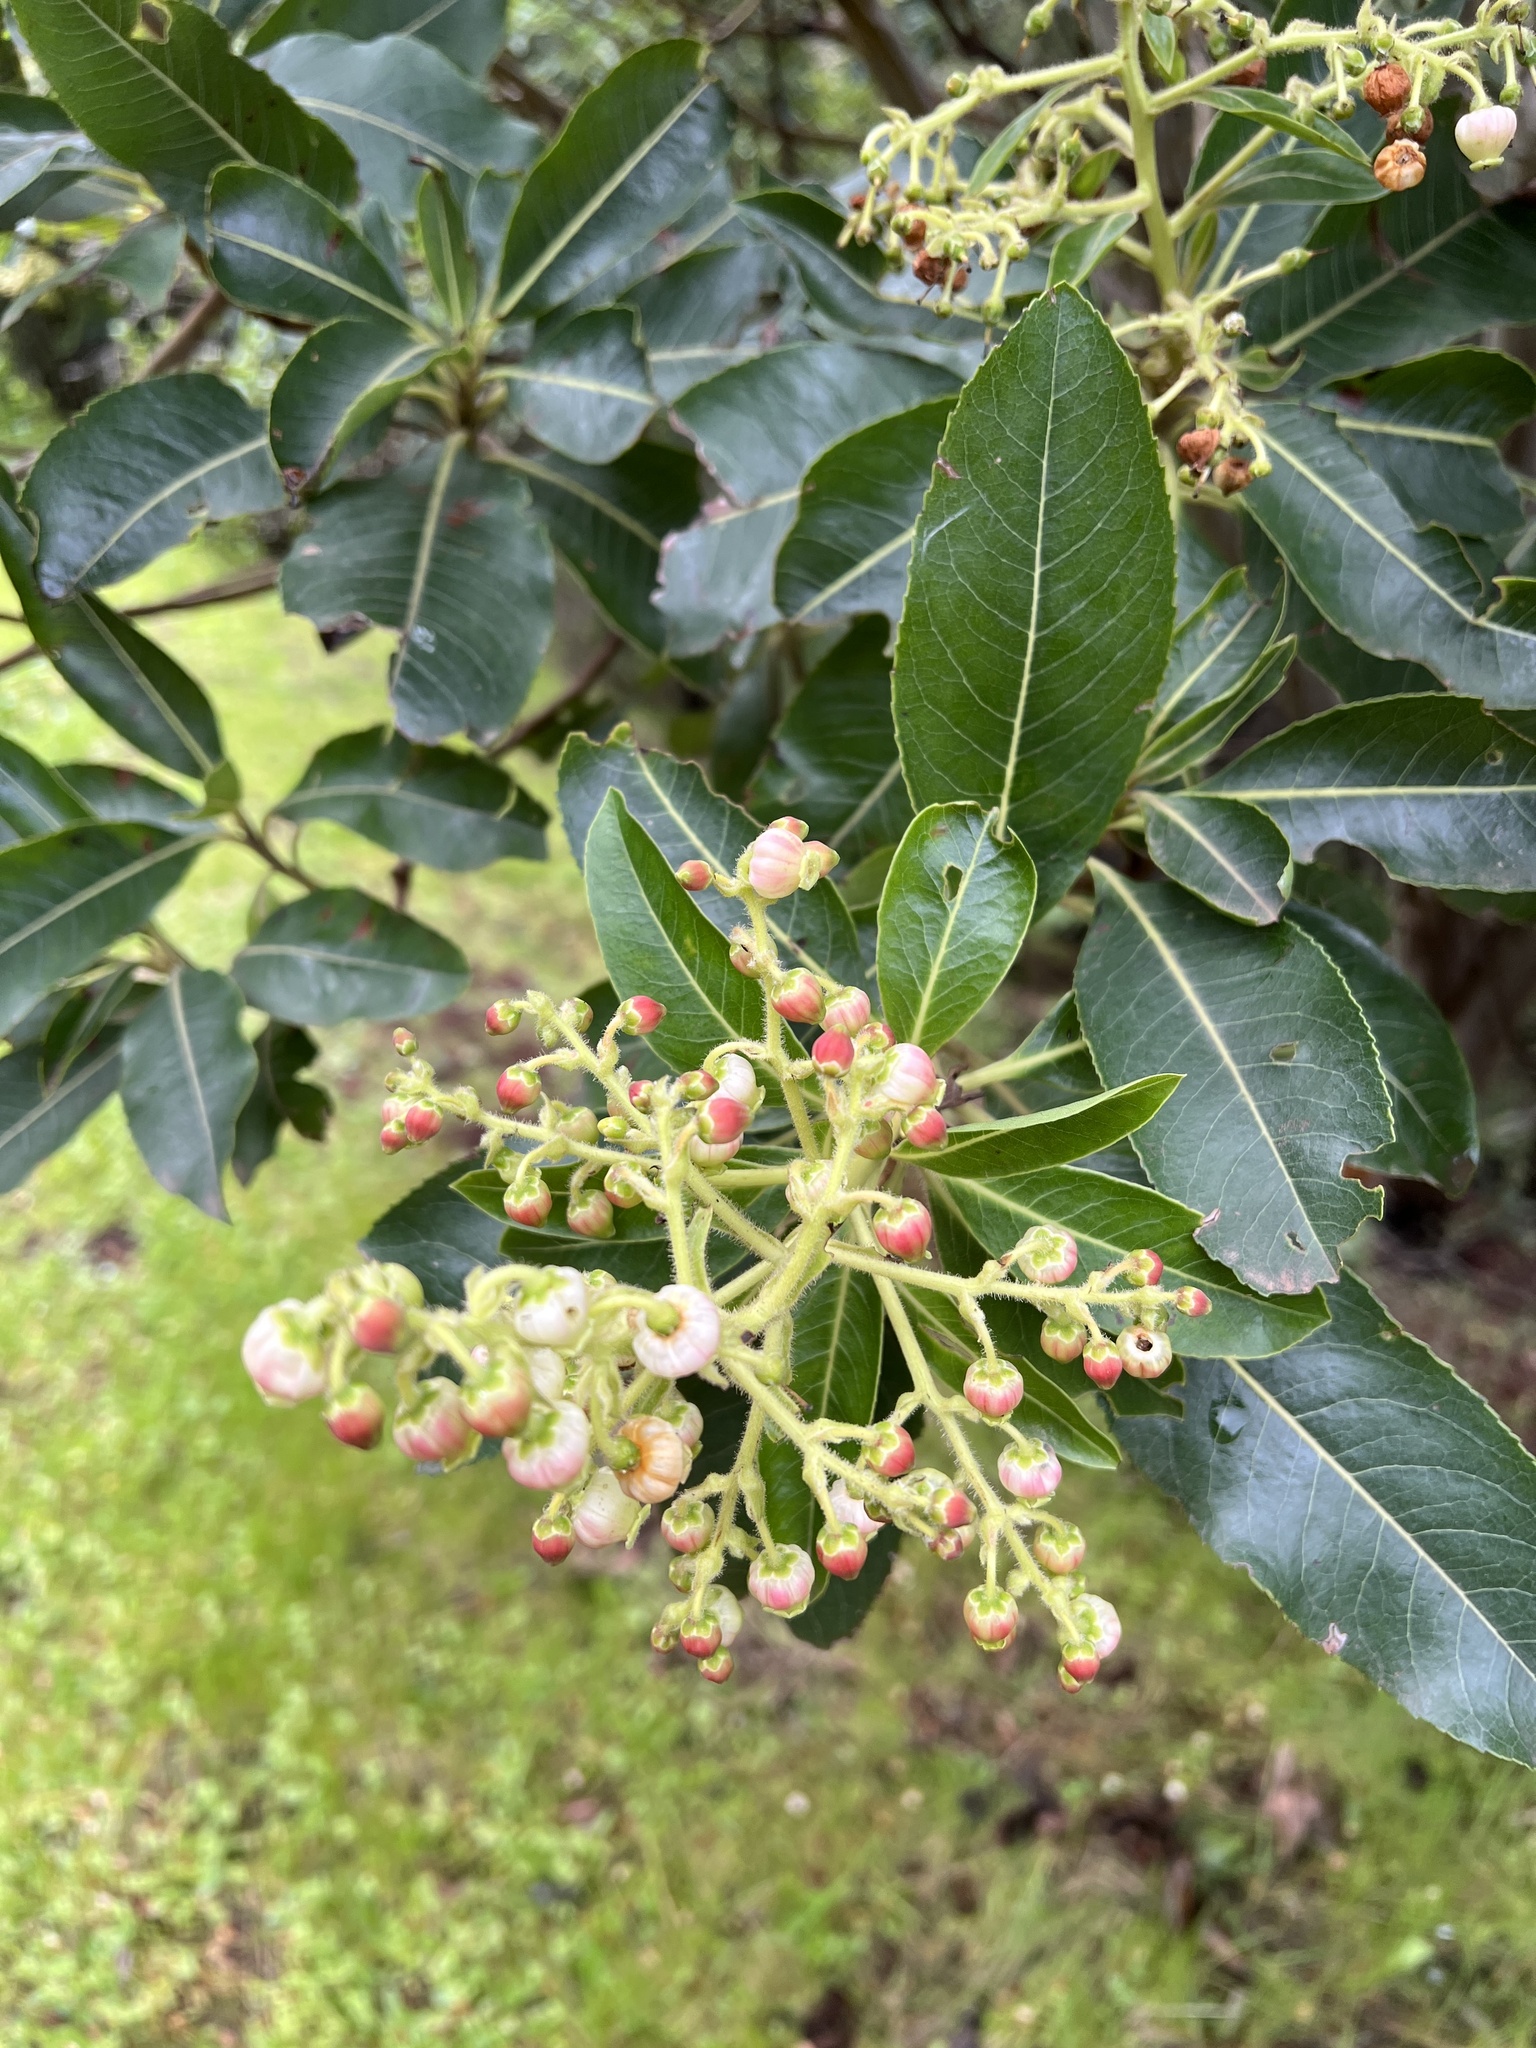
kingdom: Plantae
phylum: Tracheophyta
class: Magnoliopsida
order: Ericales
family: Ericaceae
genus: Arbutus
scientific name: Arbutus canariensis
